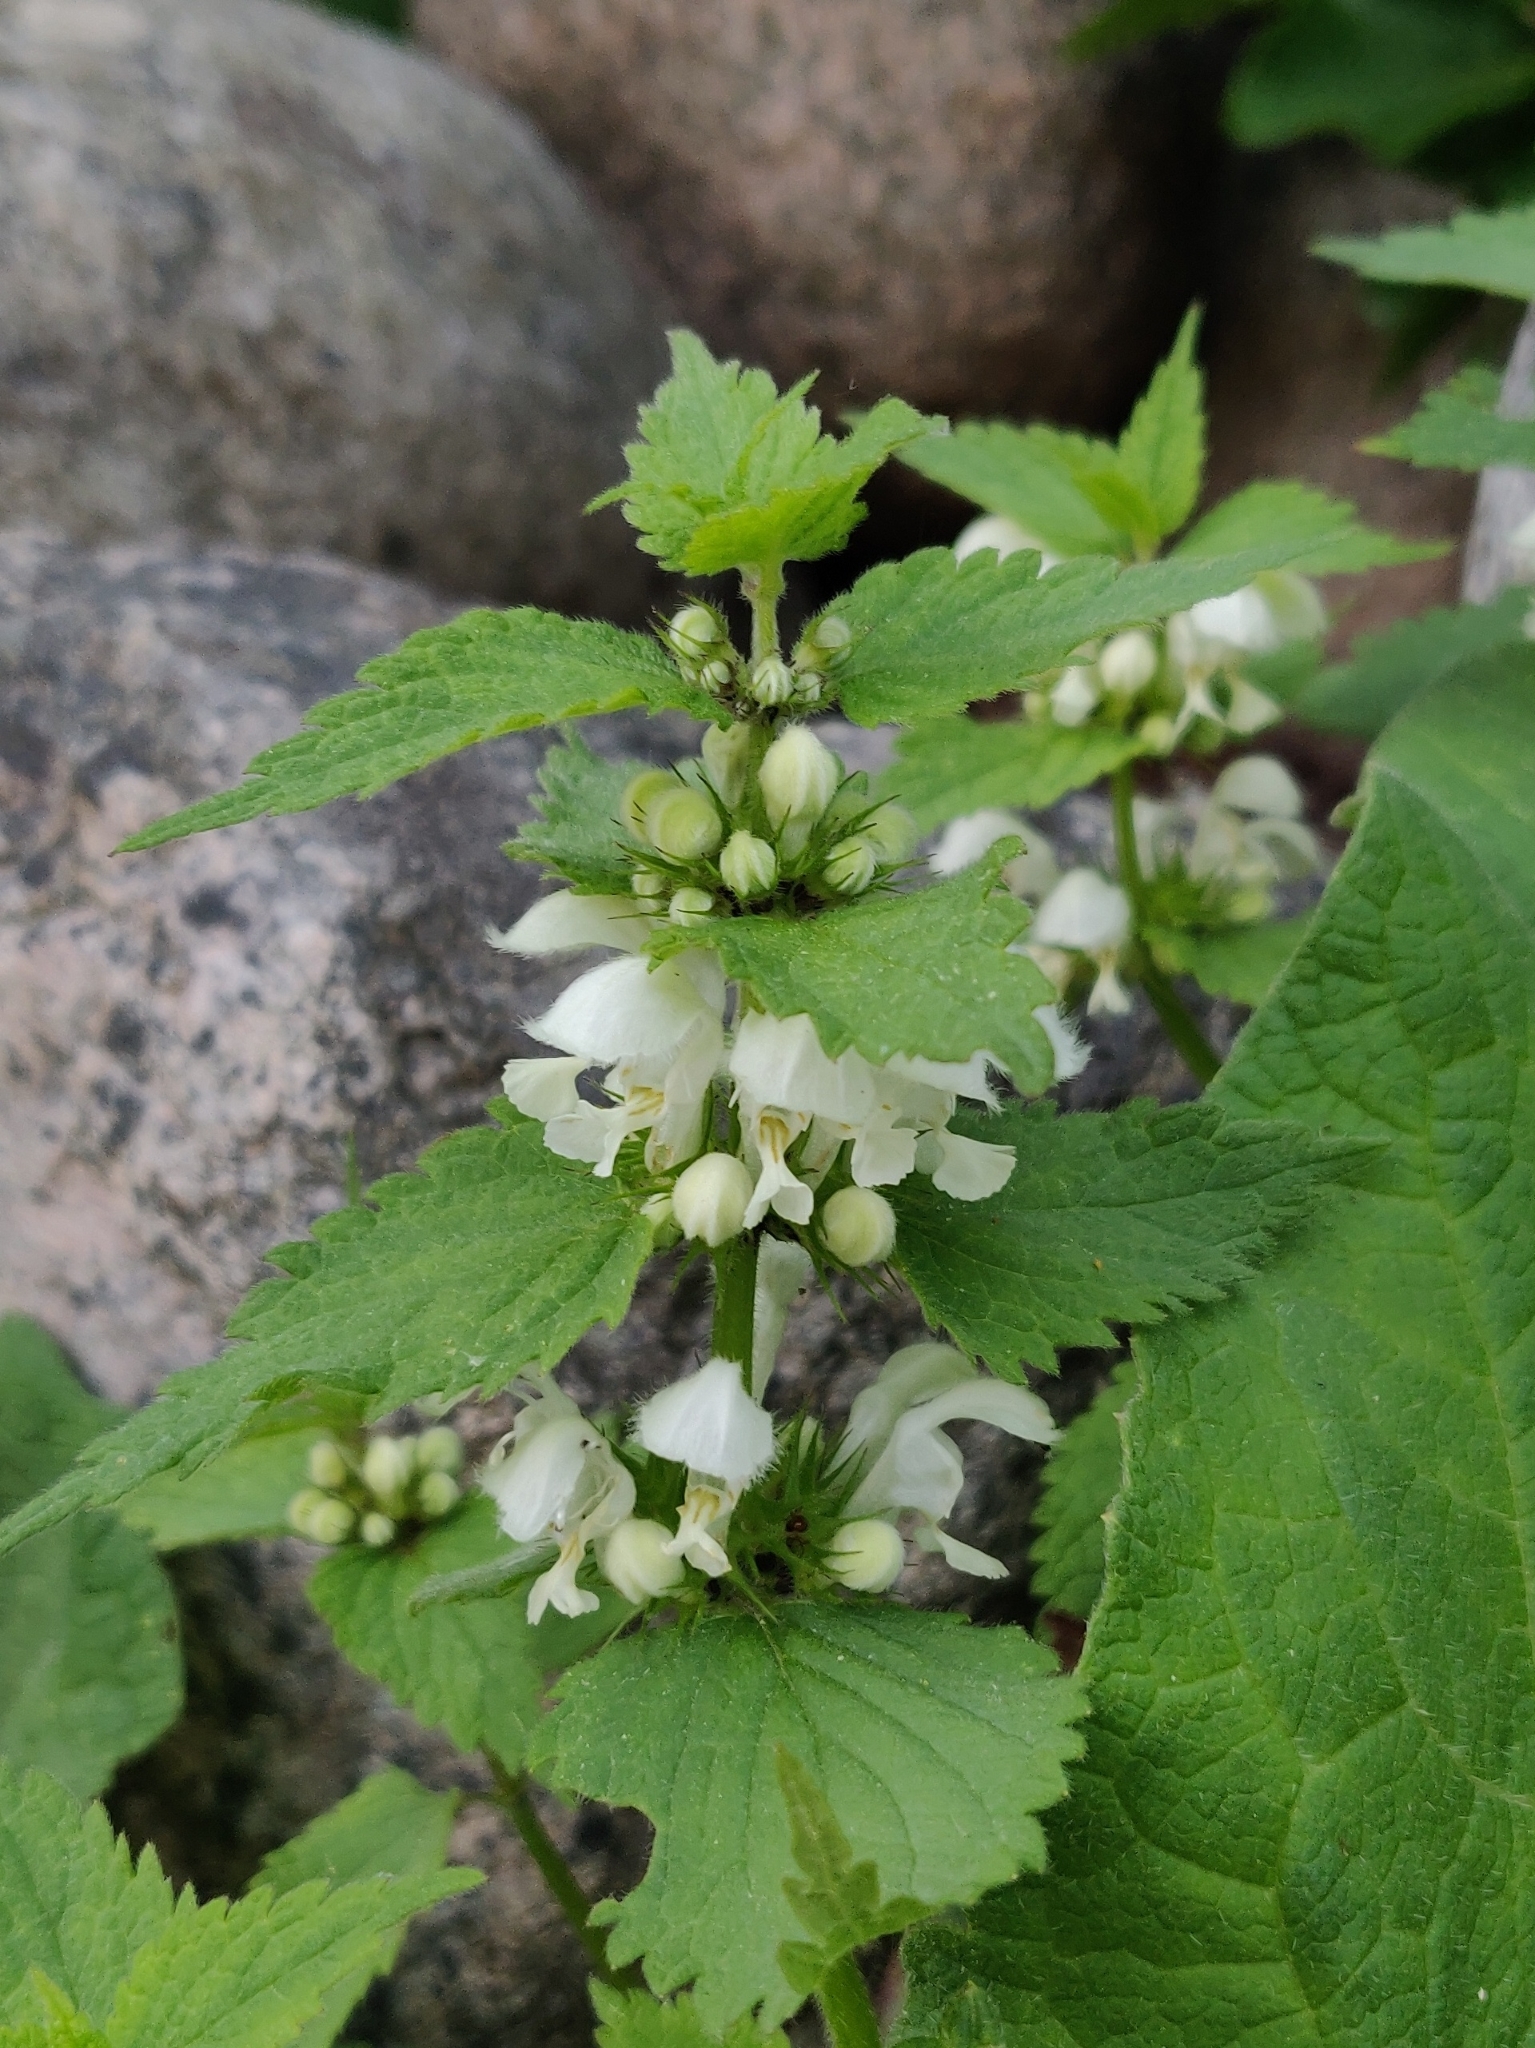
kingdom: Plantae
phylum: Tracheophyta
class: Magnoliopsida
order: Lamiales
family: Lamiaceae
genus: Lamium
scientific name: Lamium album
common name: White dead-nettle
